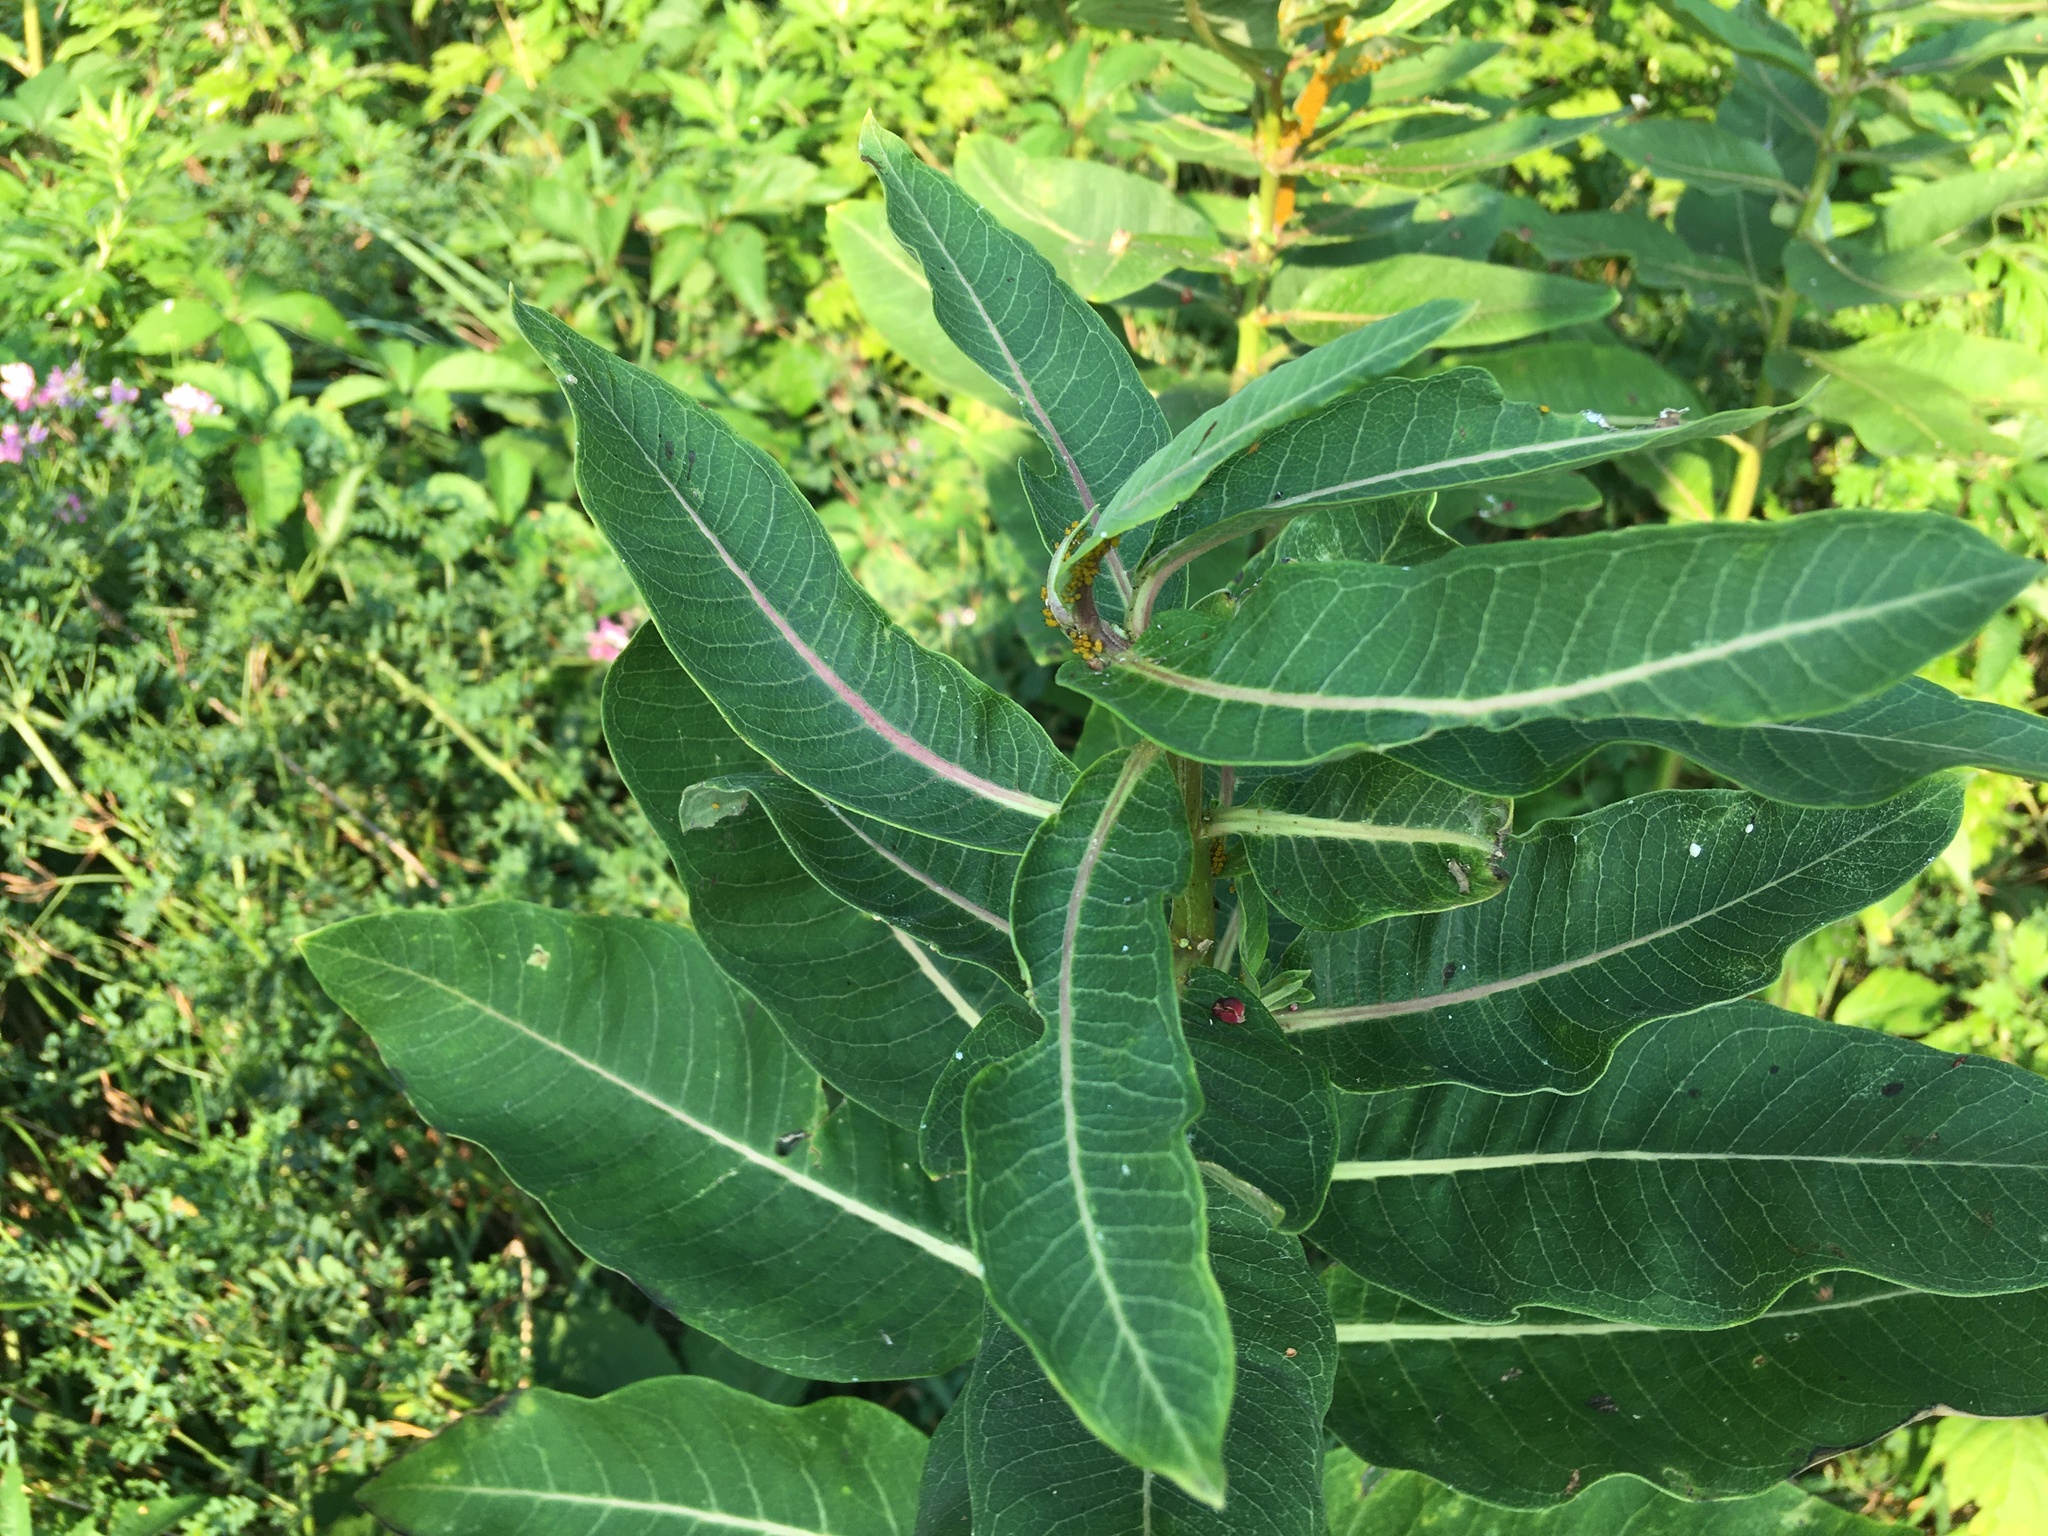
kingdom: Plantae
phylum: Tracheophyta
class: Magnoliopsida
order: Gentianales
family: Apocynaceae
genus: Asclepias
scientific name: Asclepias syriaca
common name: Common milkweed
